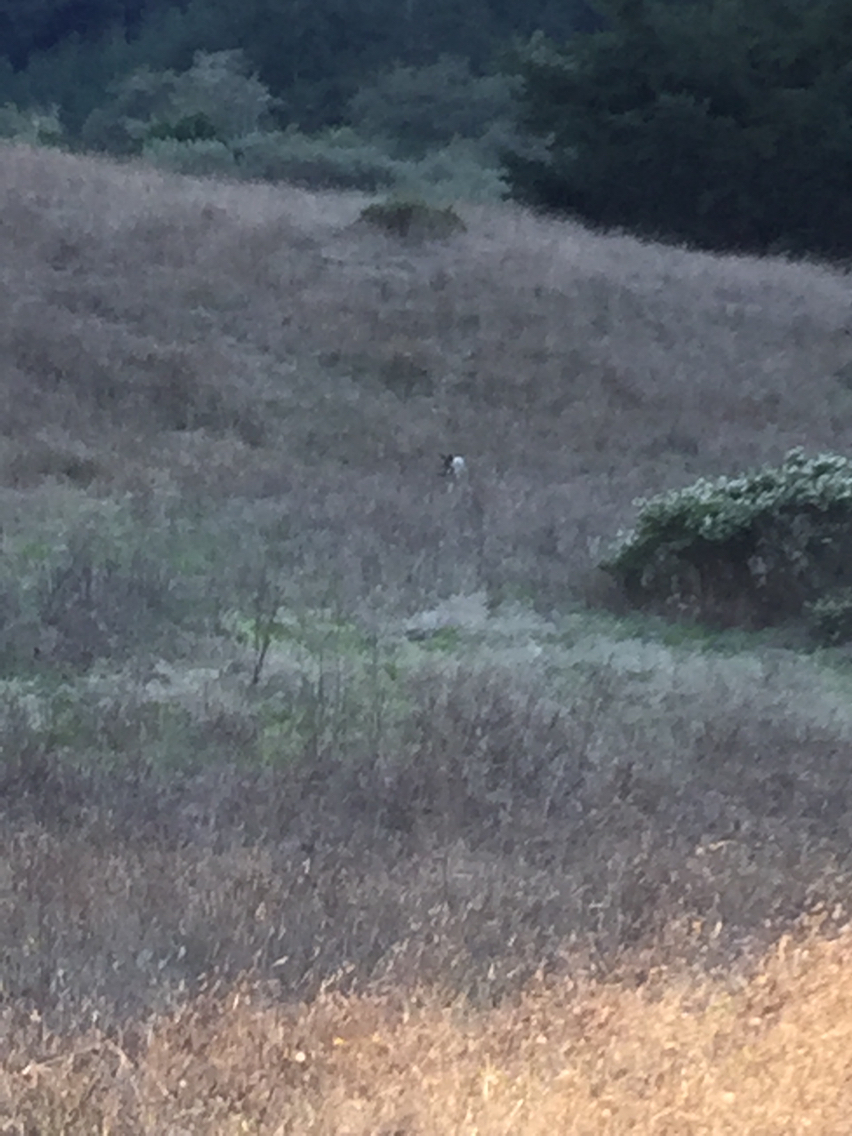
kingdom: Animalia
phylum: Chordata
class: Mammalia
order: Carnivora
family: Canidae
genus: Canis
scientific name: Canis latrans
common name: Coyote
